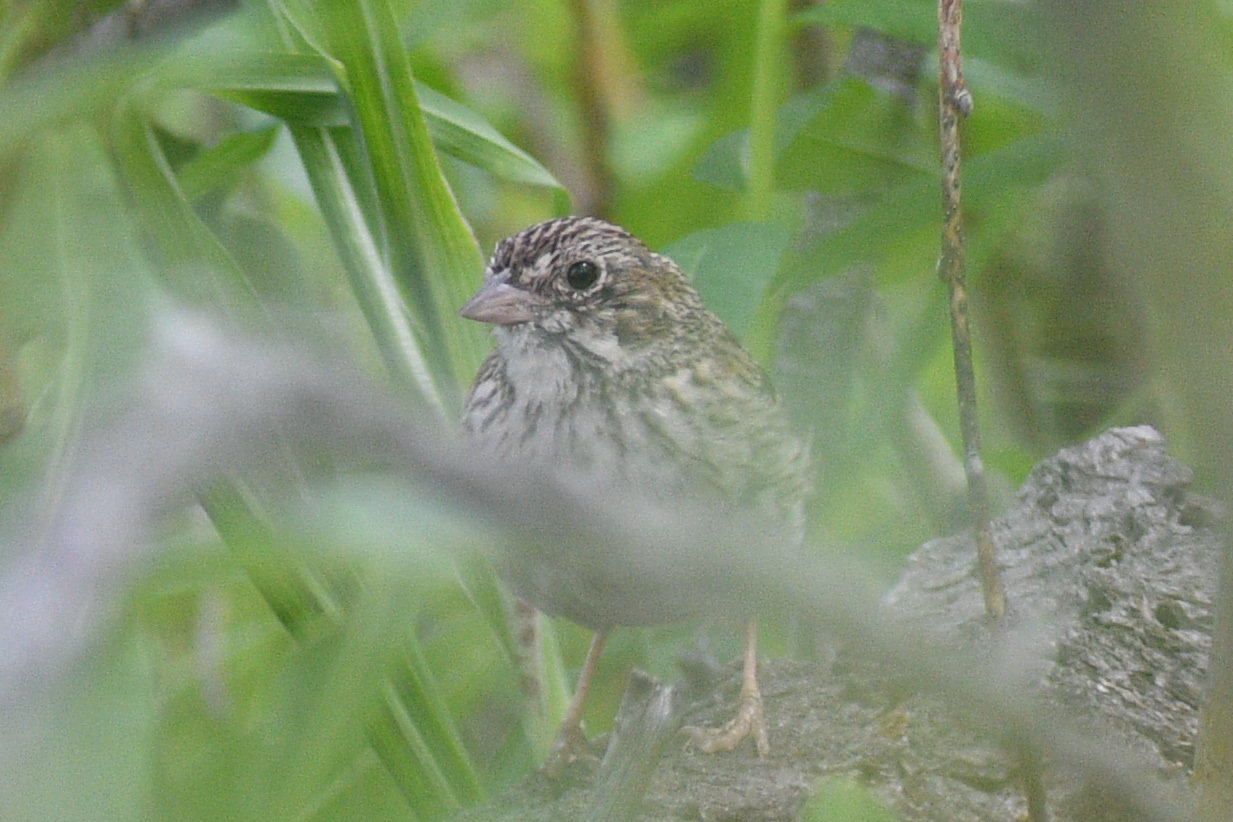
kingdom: Animalia
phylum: Chordata
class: Aves
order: Passeriformes
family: Passerellidae
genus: Pooecetes
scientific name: Pooecetes gramineus
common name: Vesper sparrow
